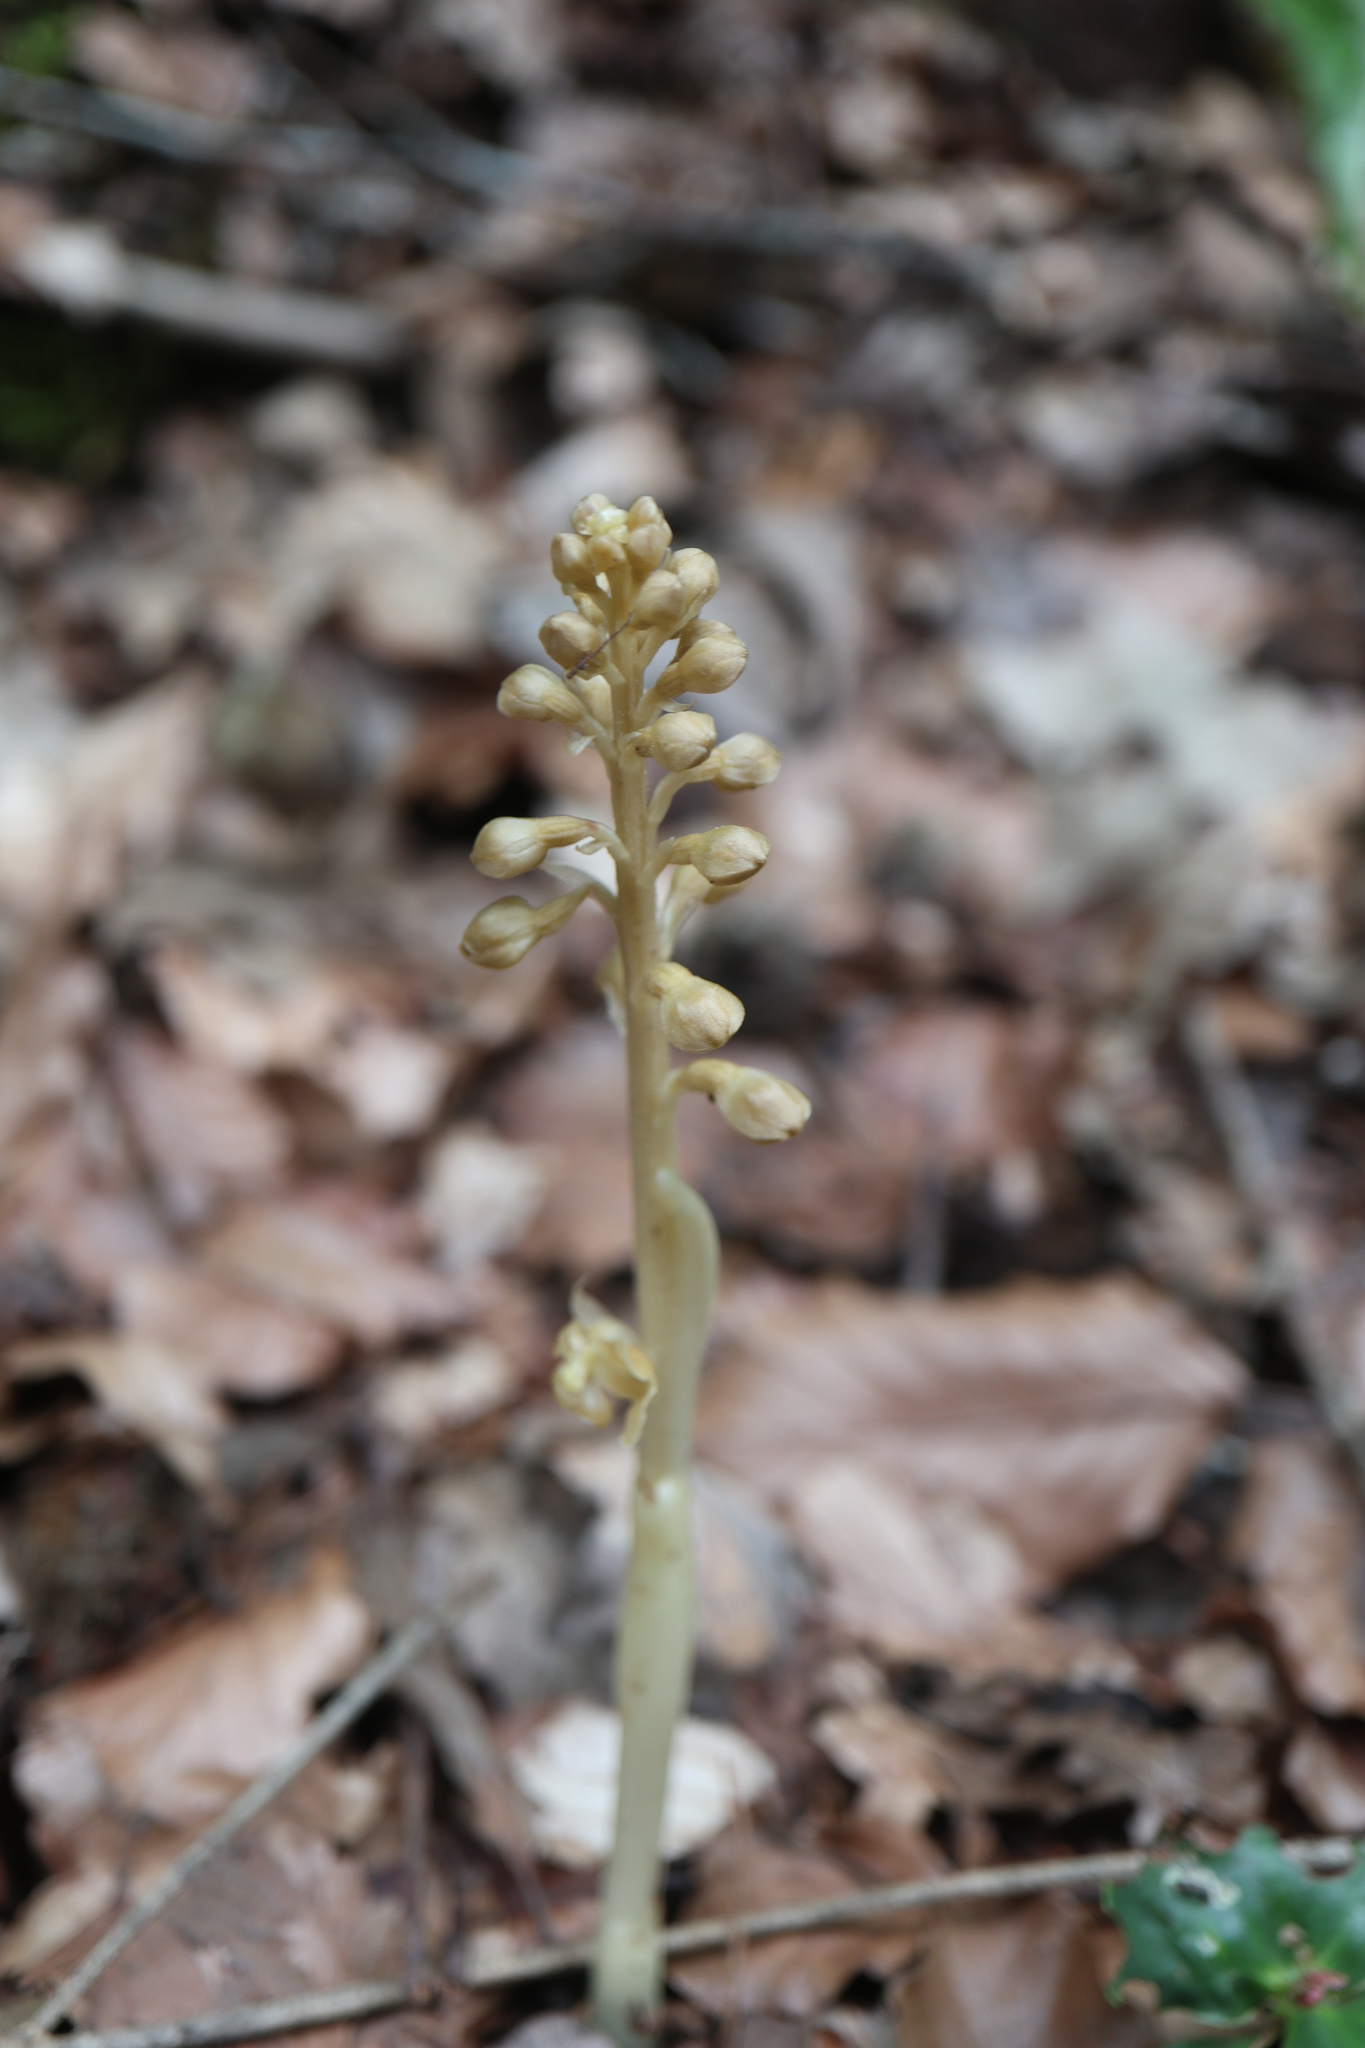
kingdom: Plantae
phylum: Tracheophyta
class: Liliopsida
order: Asparagales
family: Orchidaceae
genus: Neottia
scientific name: Neottia nidus-avis
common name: Bird's-nest orchid
